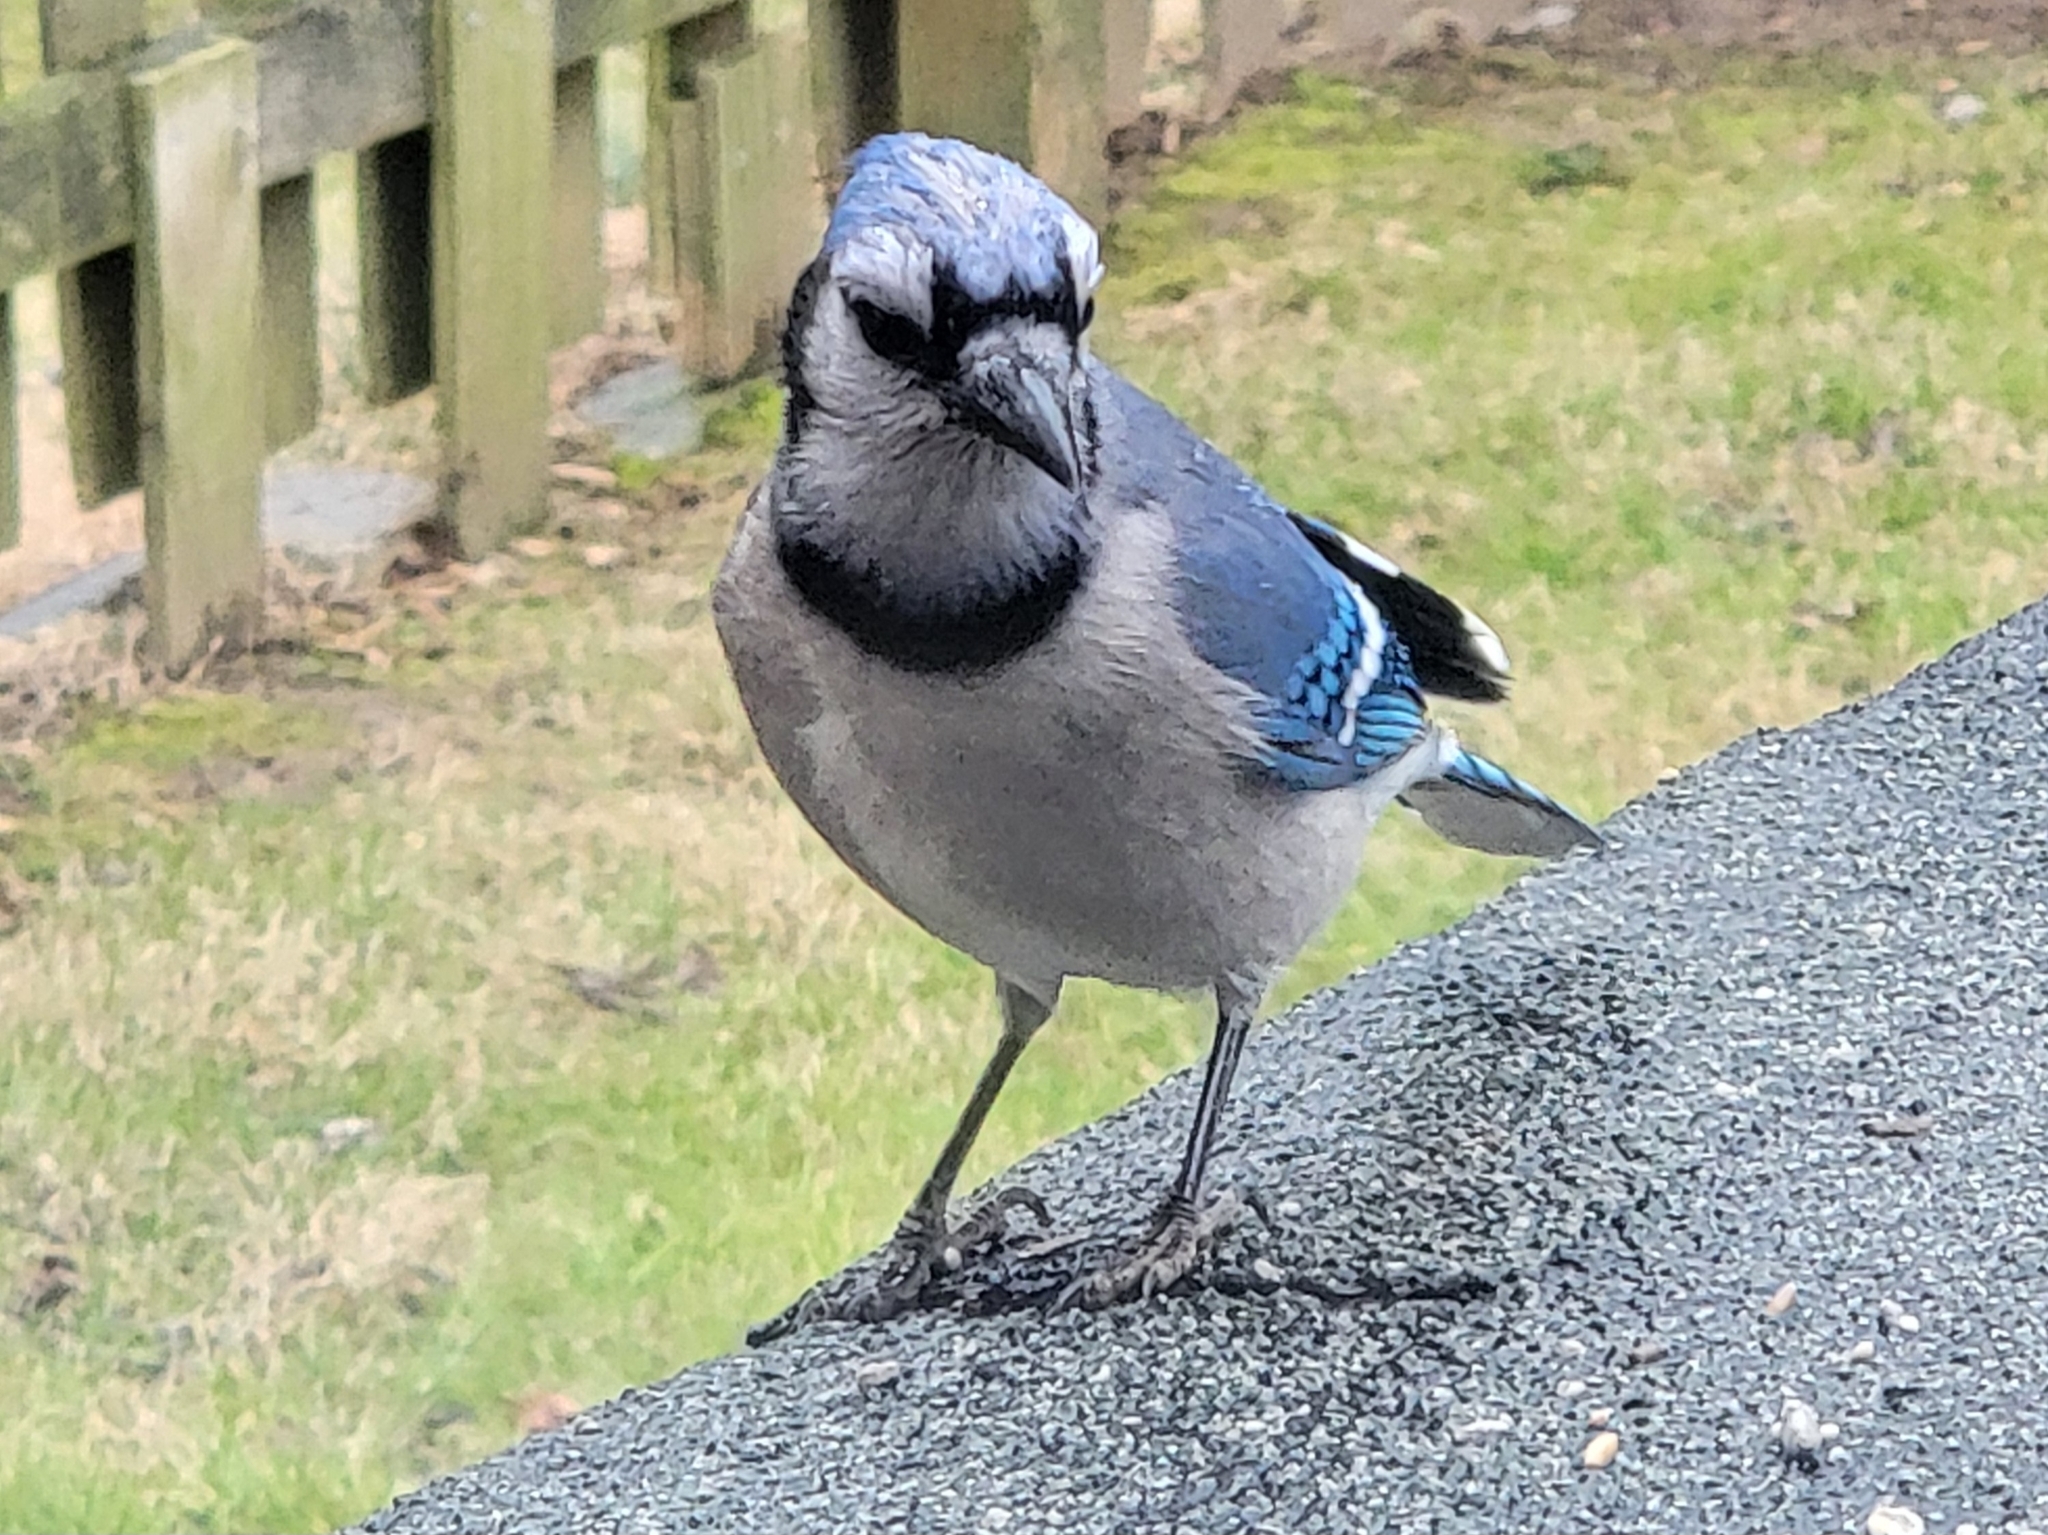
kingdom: Animalia
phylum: Chordata
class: Aves
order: Passeriformes
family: Corvidae
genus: Cyanocitta
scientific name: Cyanocitta cristata
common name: Blue jay
